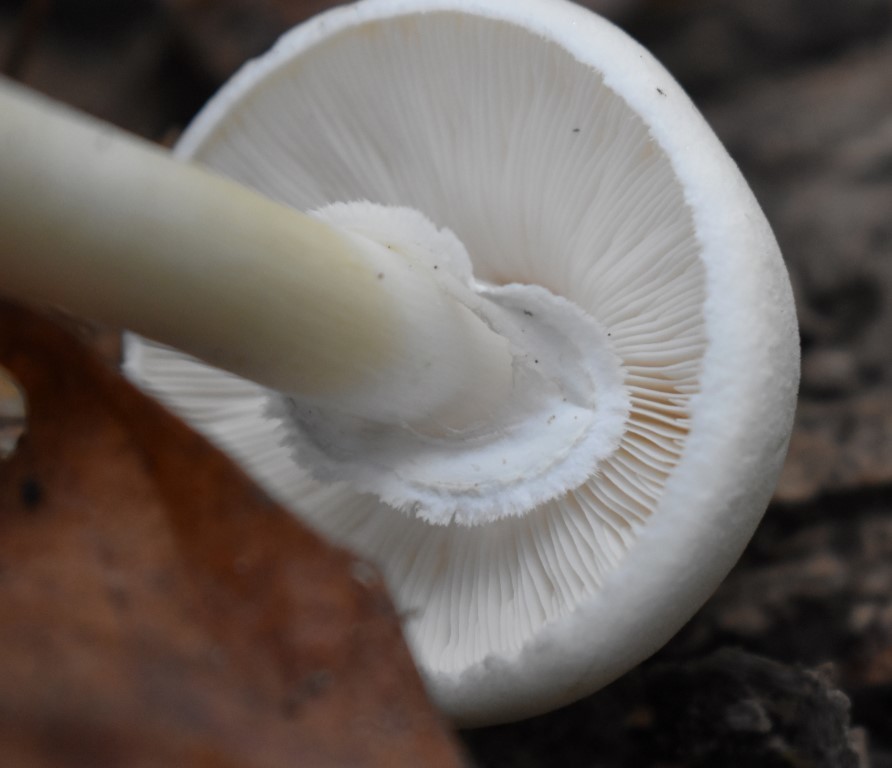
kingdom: Fungi
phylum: Basidiomycota
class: Agaricomycetes
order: Agaricales
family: Agaricaceae
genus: Leucoagaricus
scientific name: Leucoagaricus leucothites
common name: White dapperling
